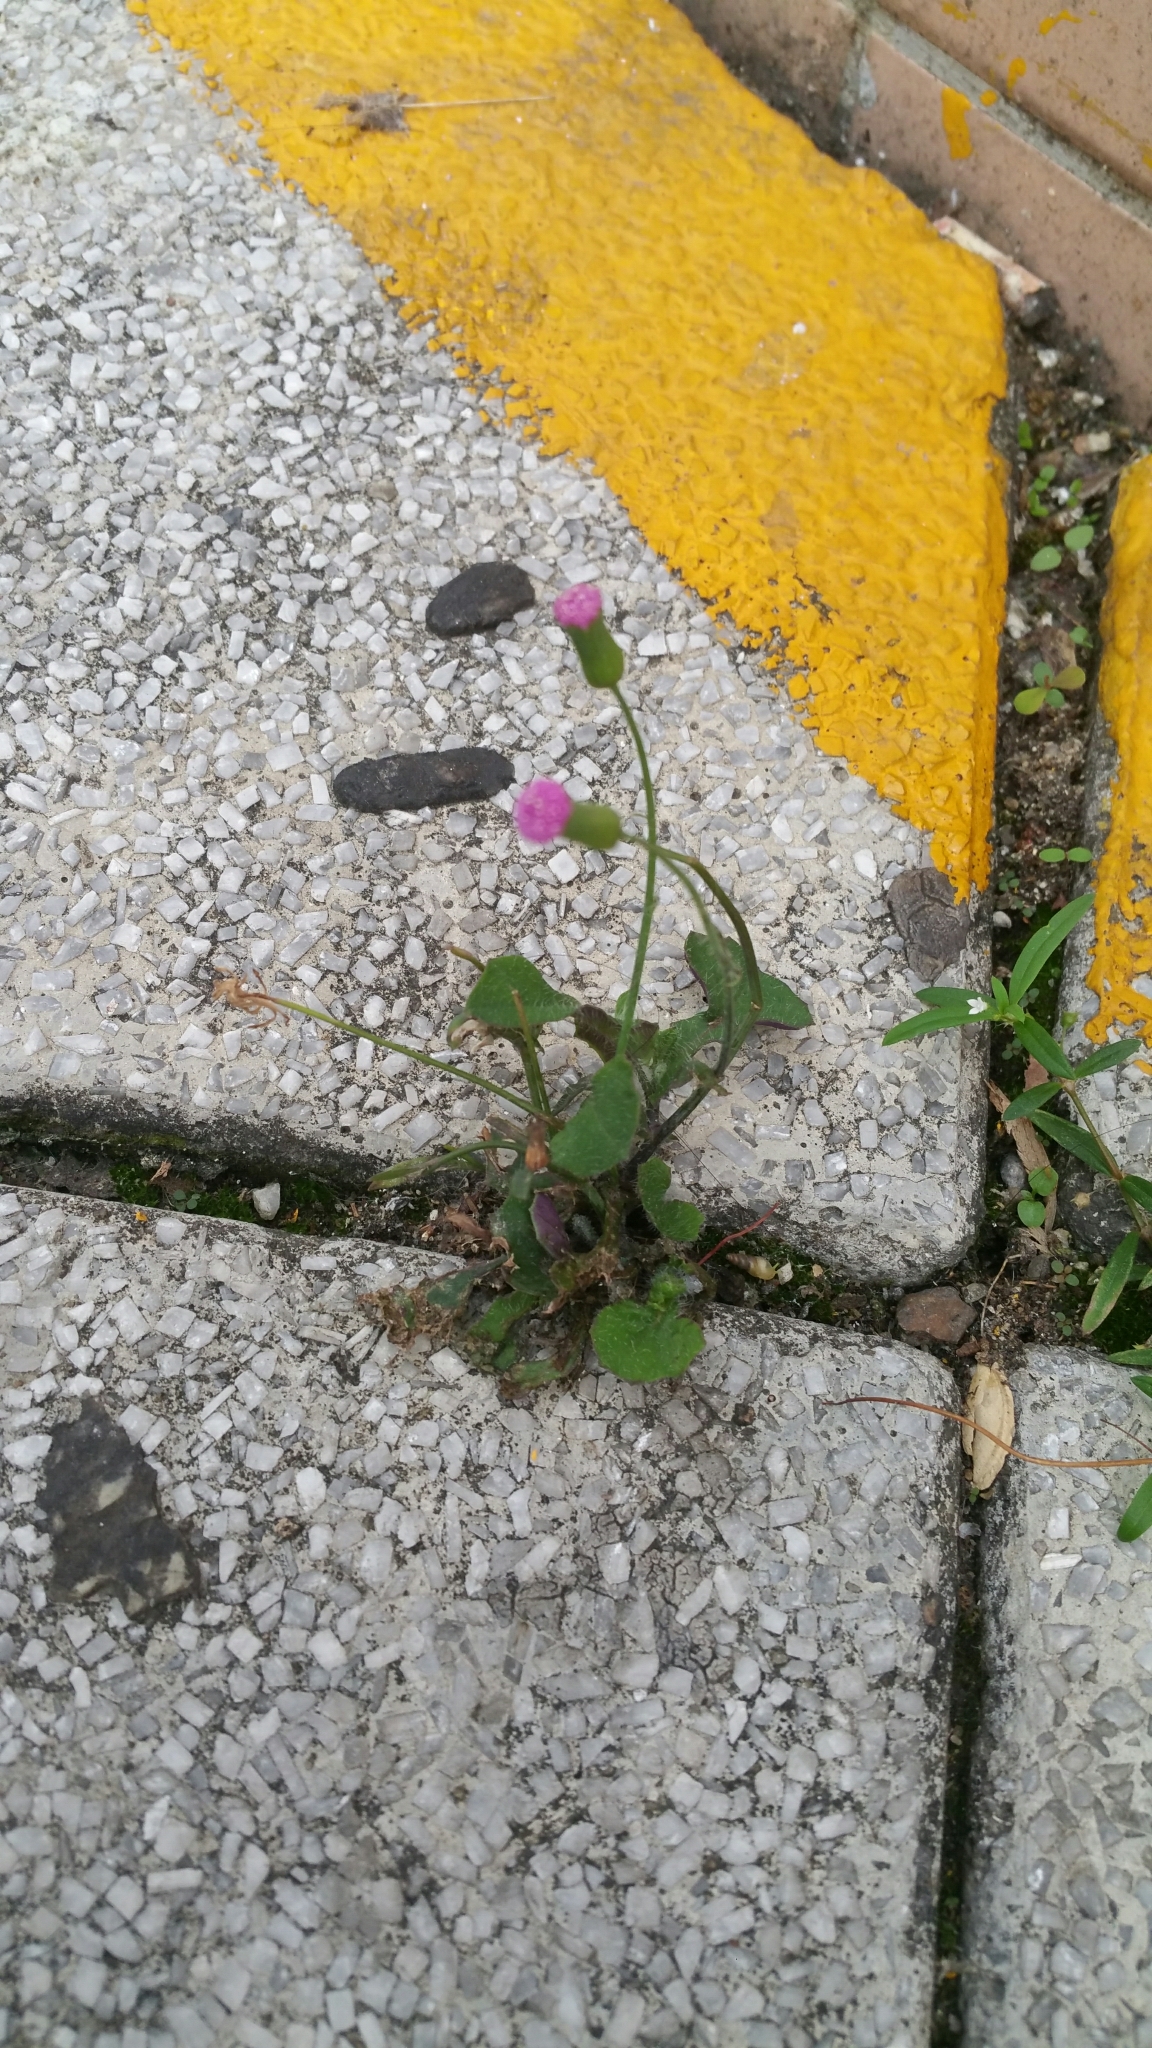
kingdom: Plantae
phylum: Tracheophyta
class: Magnoliopsida
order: Asterales
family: Asteraceae
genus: Emilia
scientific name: Emilia sonchifolia
